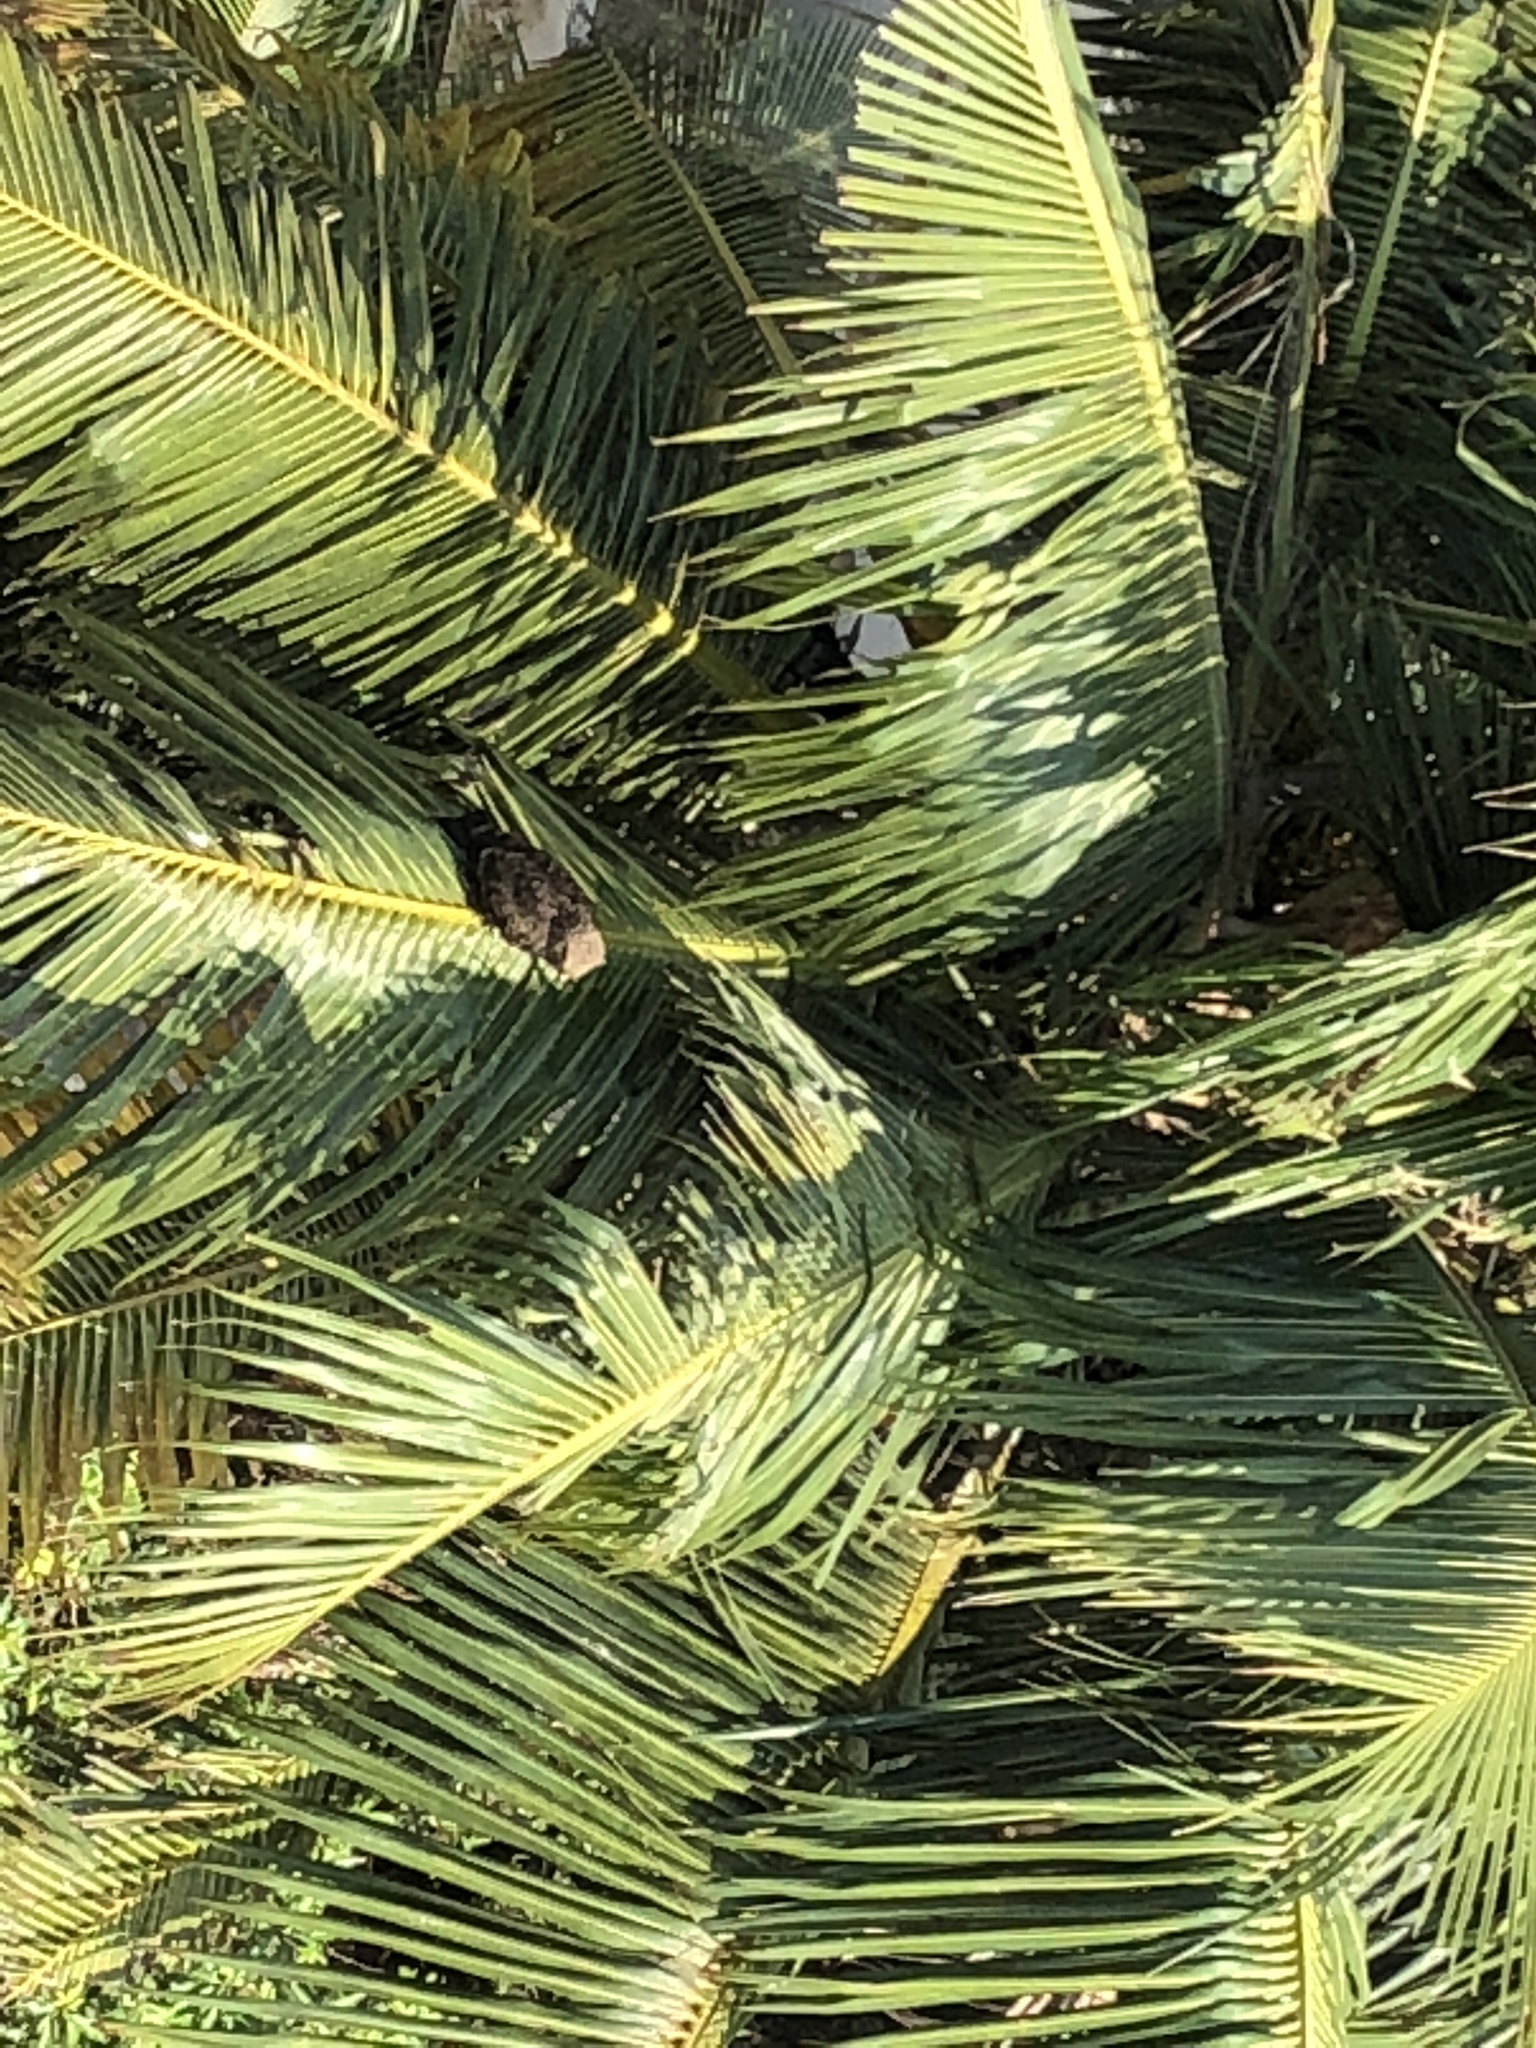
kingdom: Animalia
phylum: Chordata
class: Aves
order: Accipitriformes
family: Accipitridae
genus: Milvus
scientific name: Milvus migrans
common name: Black kite
